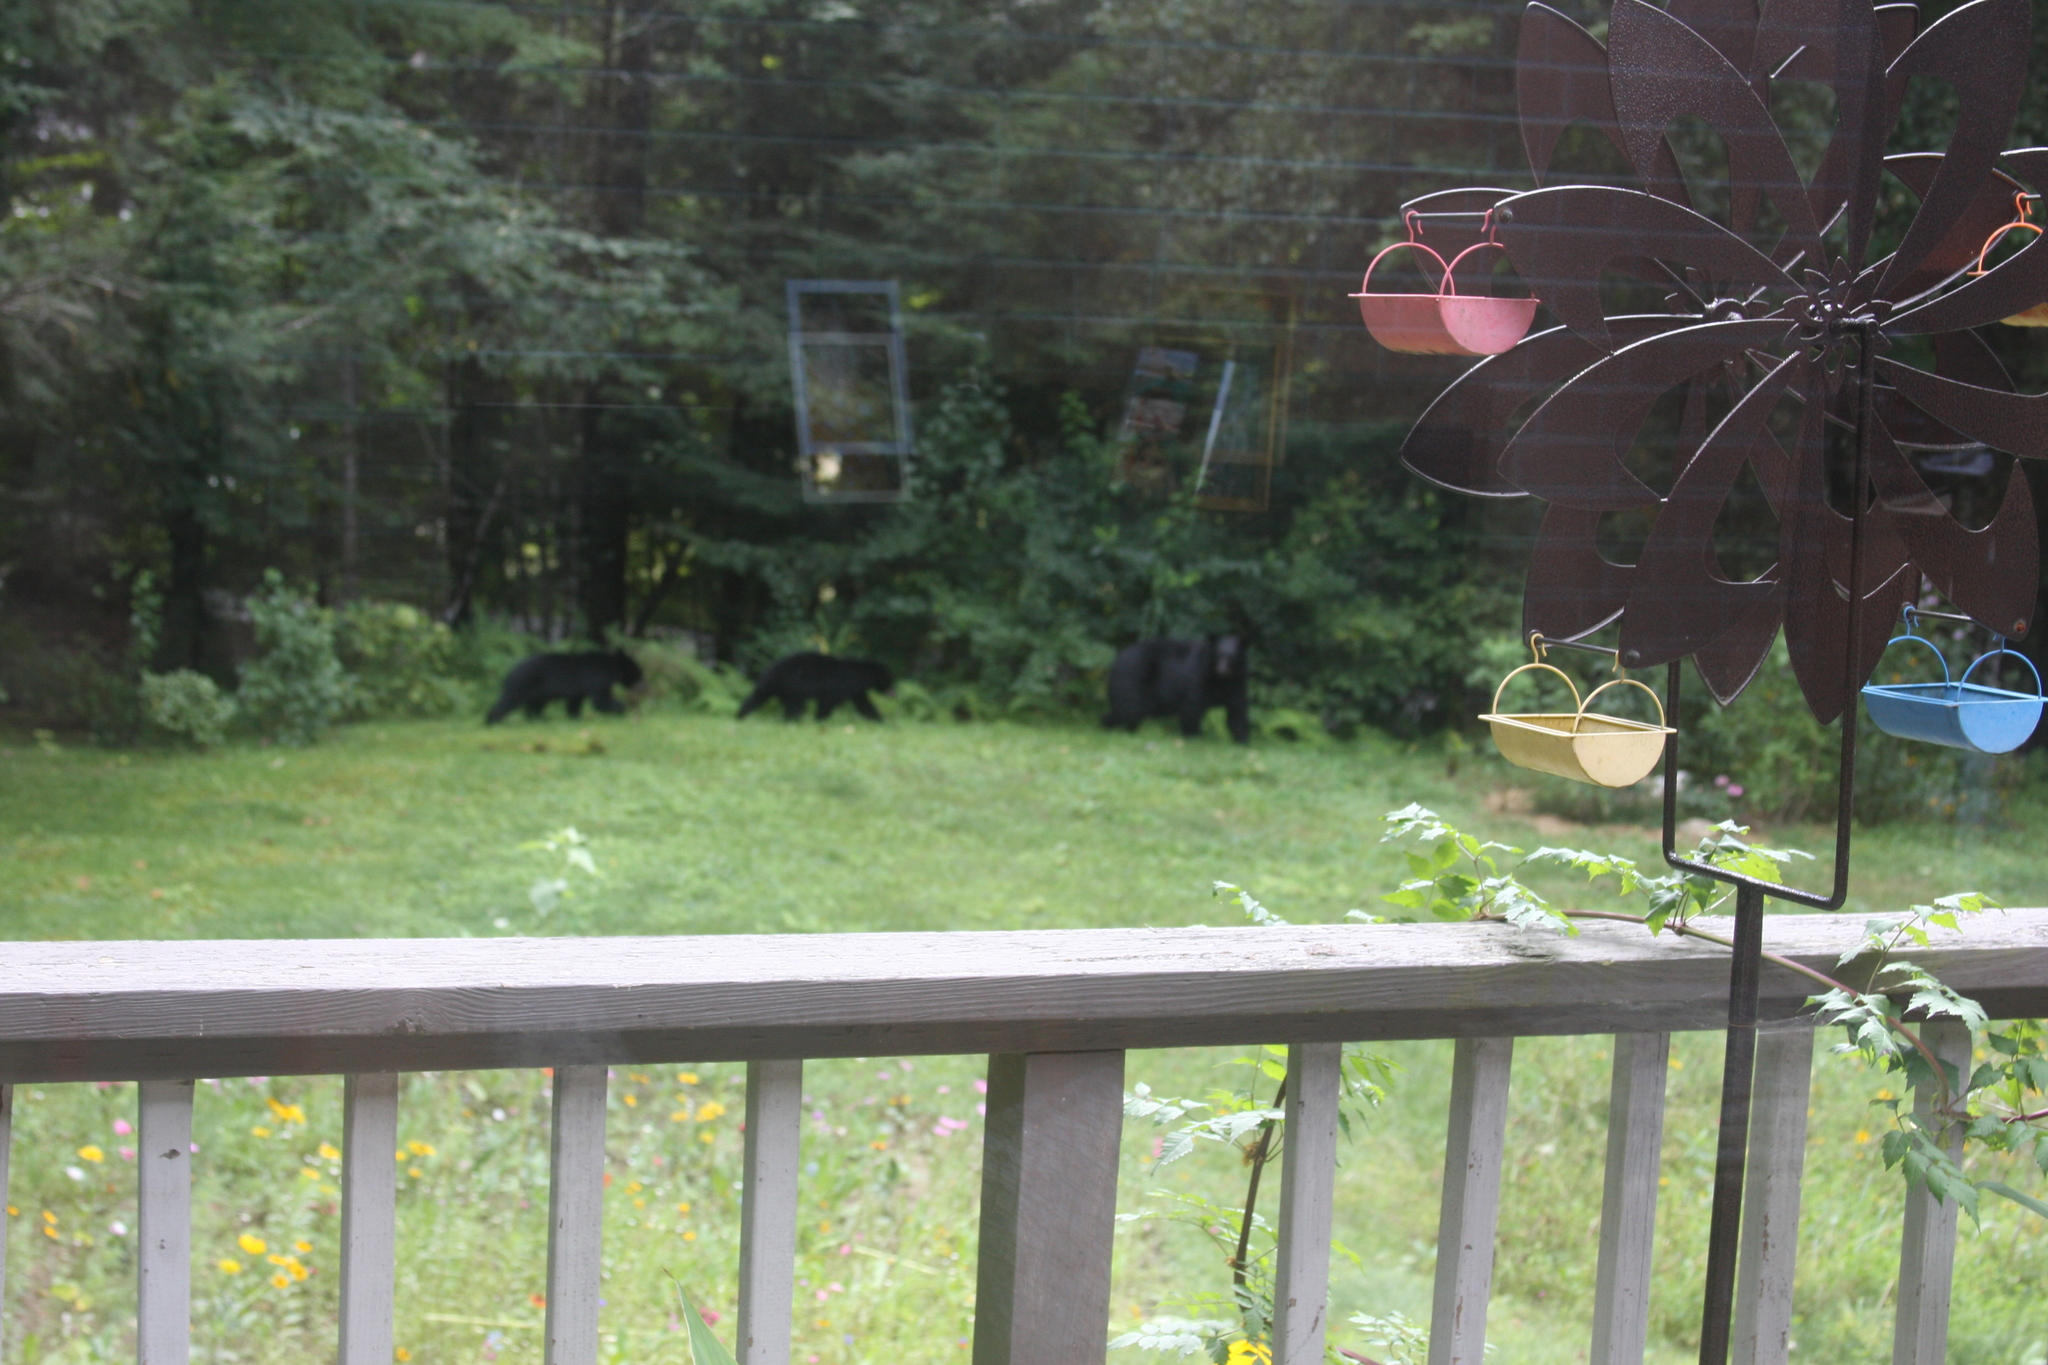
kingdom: Animalia
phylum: Chordata
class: Mammalia
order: Carnivora
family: Ursidae
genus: Ursus
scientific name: Ursus americanus
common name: American black bear
